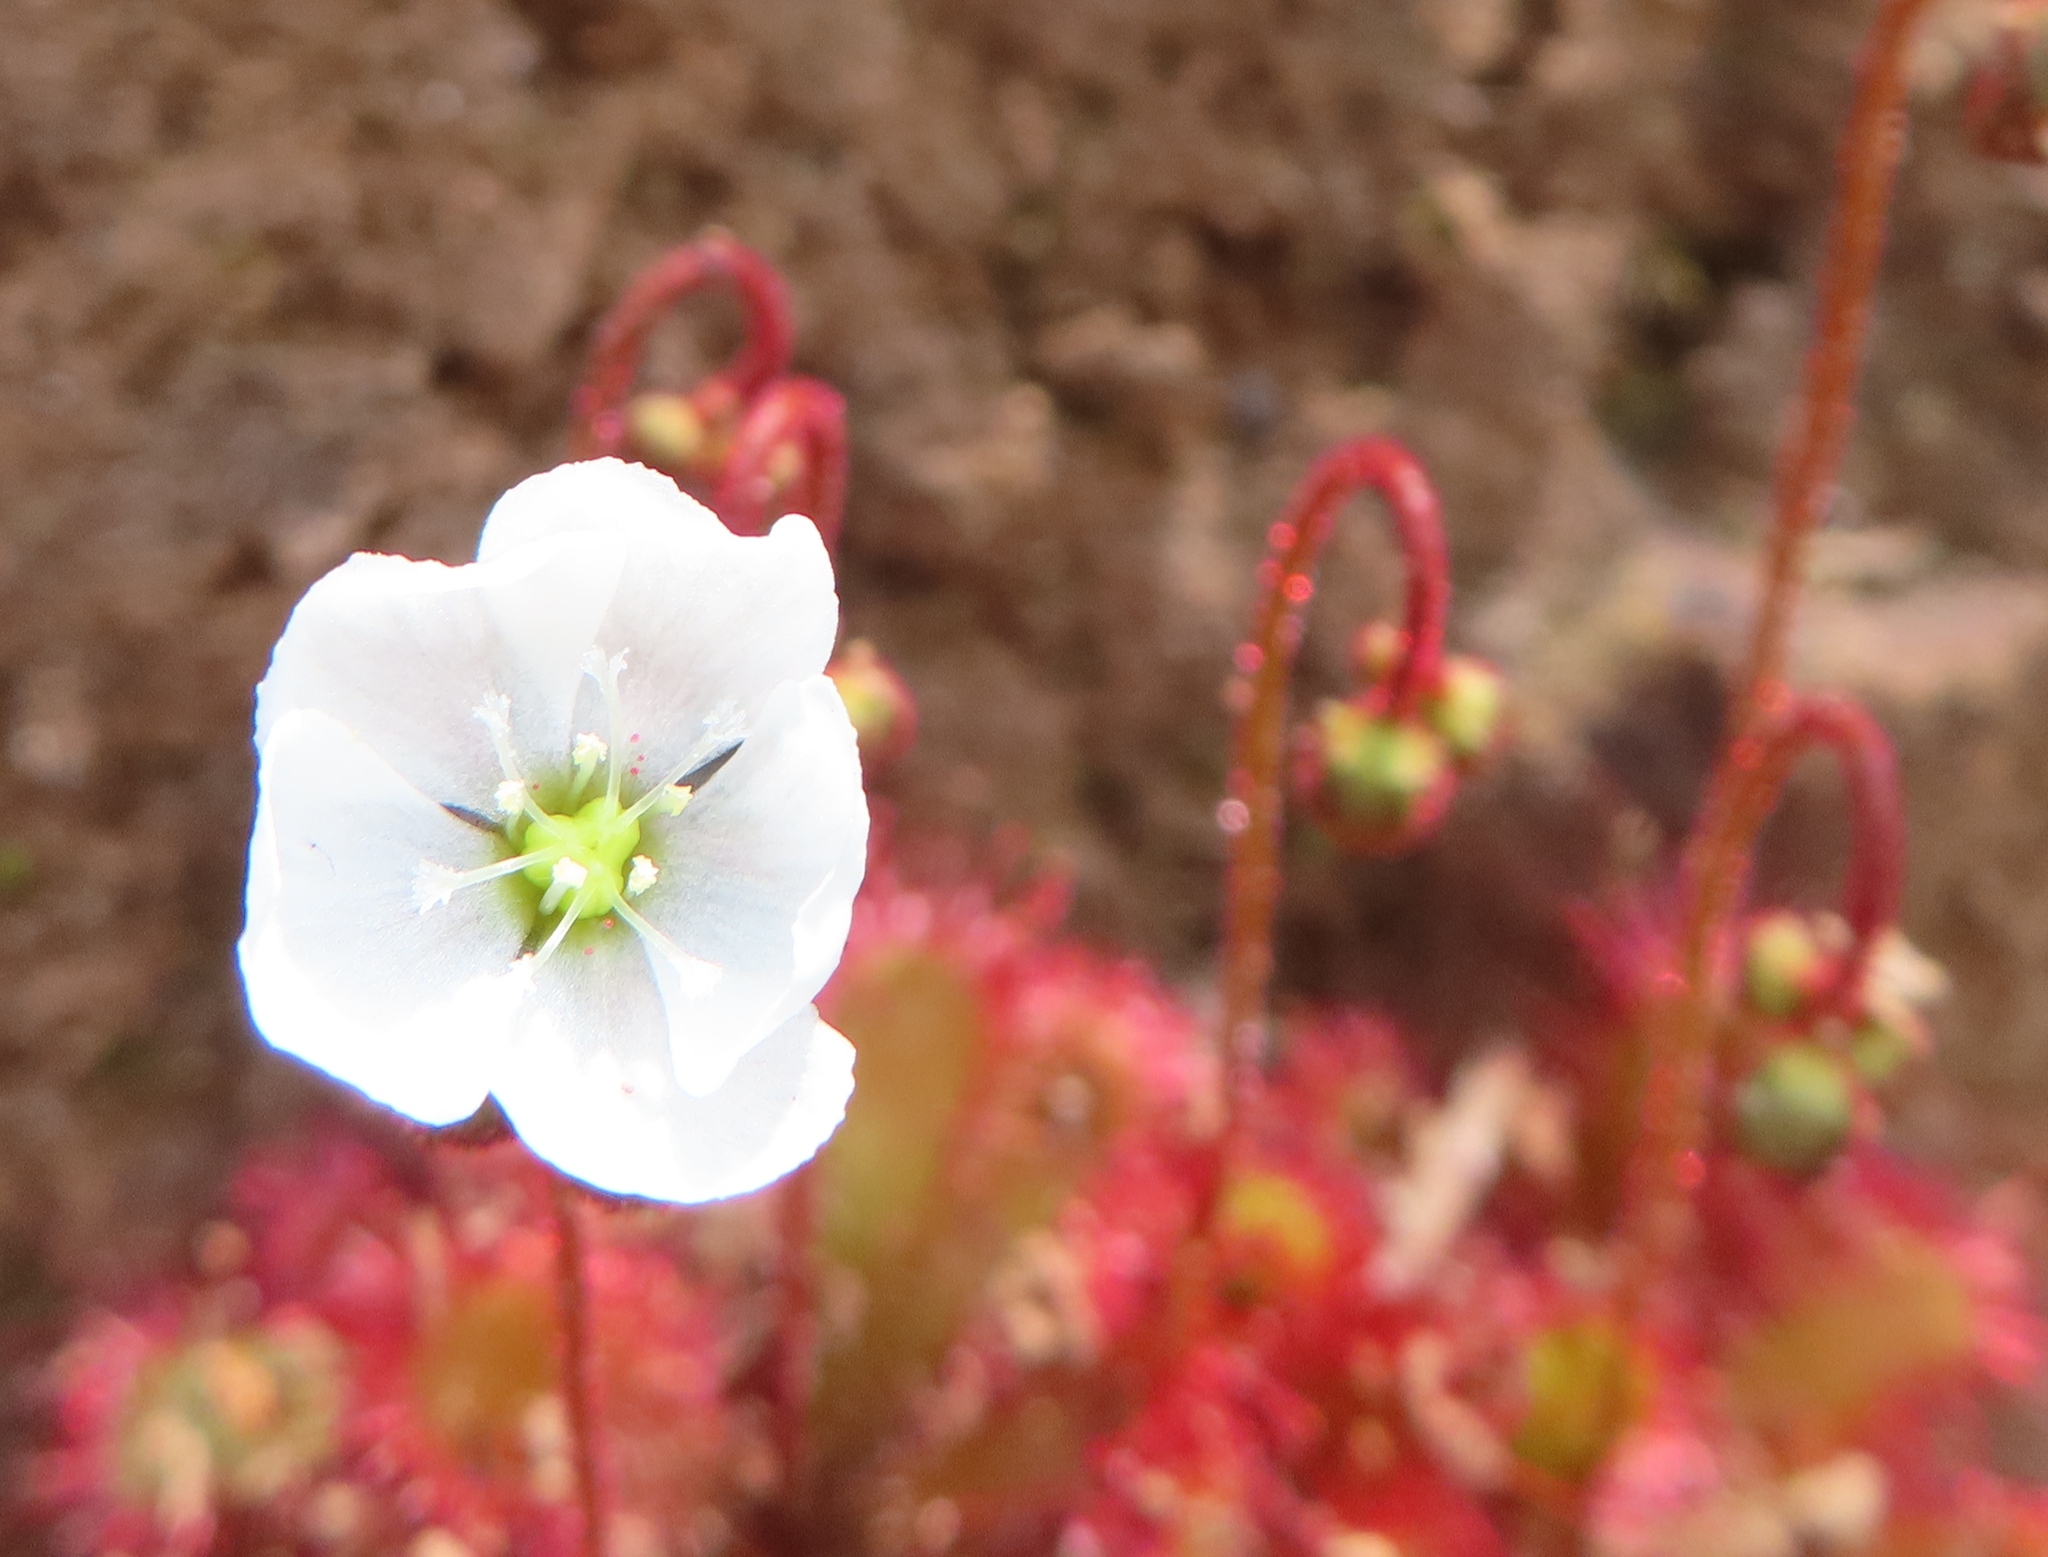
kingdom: Plantae
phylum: Tracheophyta
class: Magnoliopsida
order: Caryophyllales
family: Droseraceae
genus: Drosera
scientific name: Drosera trinervia
